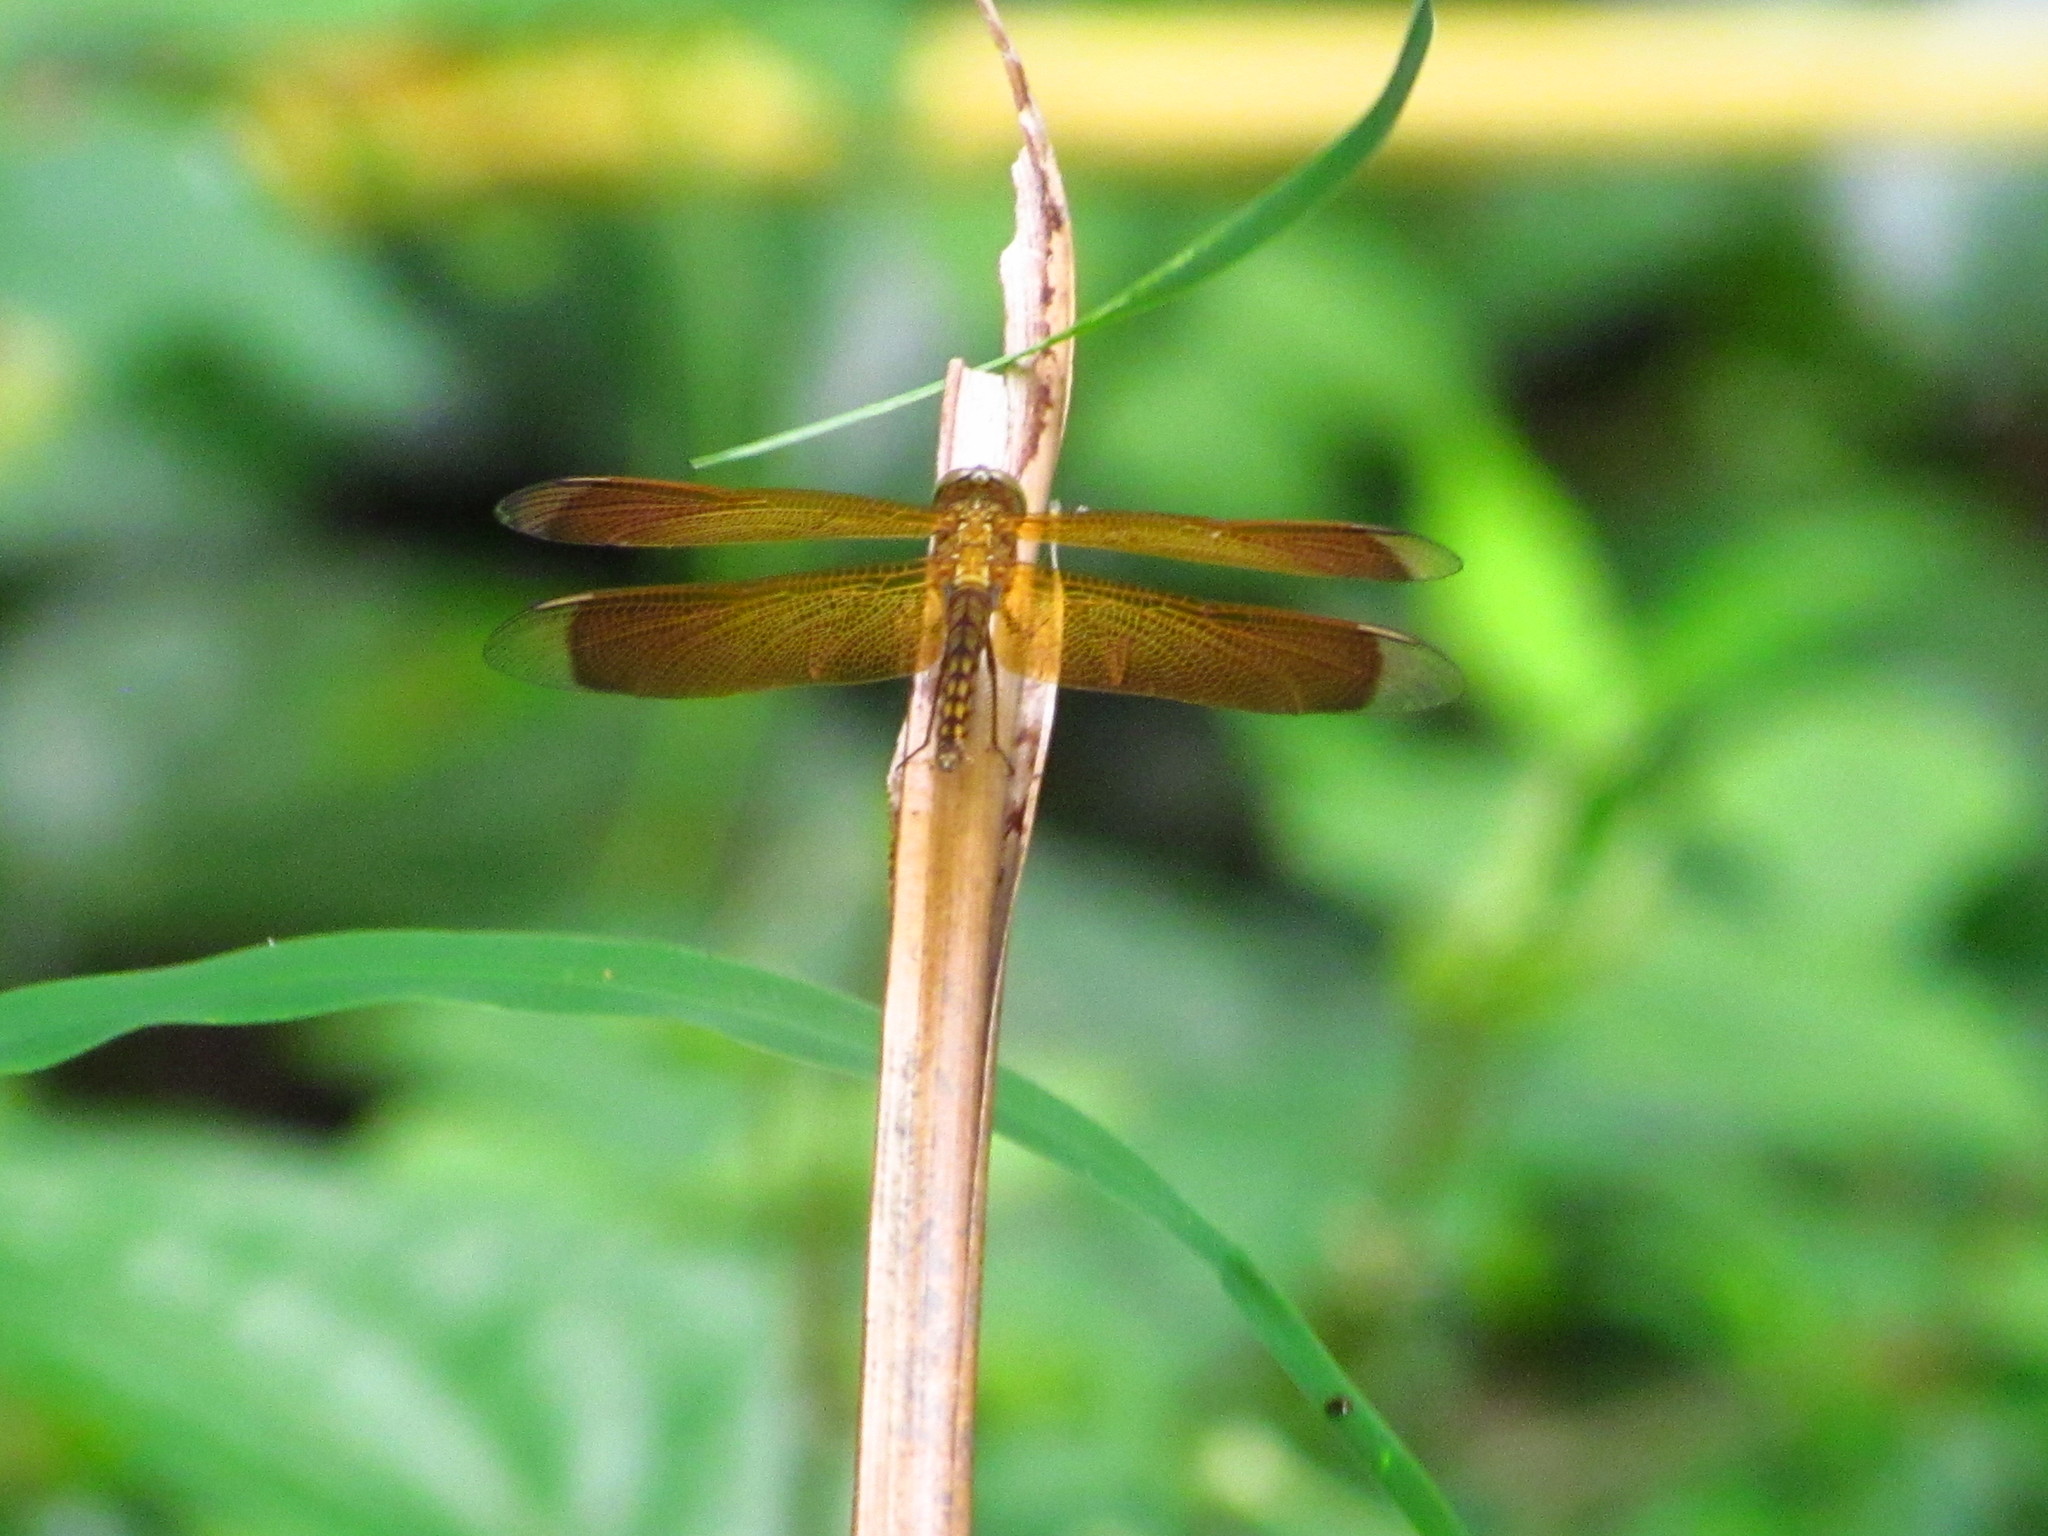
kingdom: Animalia
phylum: Arthropoda
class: Insecta
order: Odonata
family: Libellulidae
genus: Neurothemis
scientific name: Neurothemis taiwanensis
